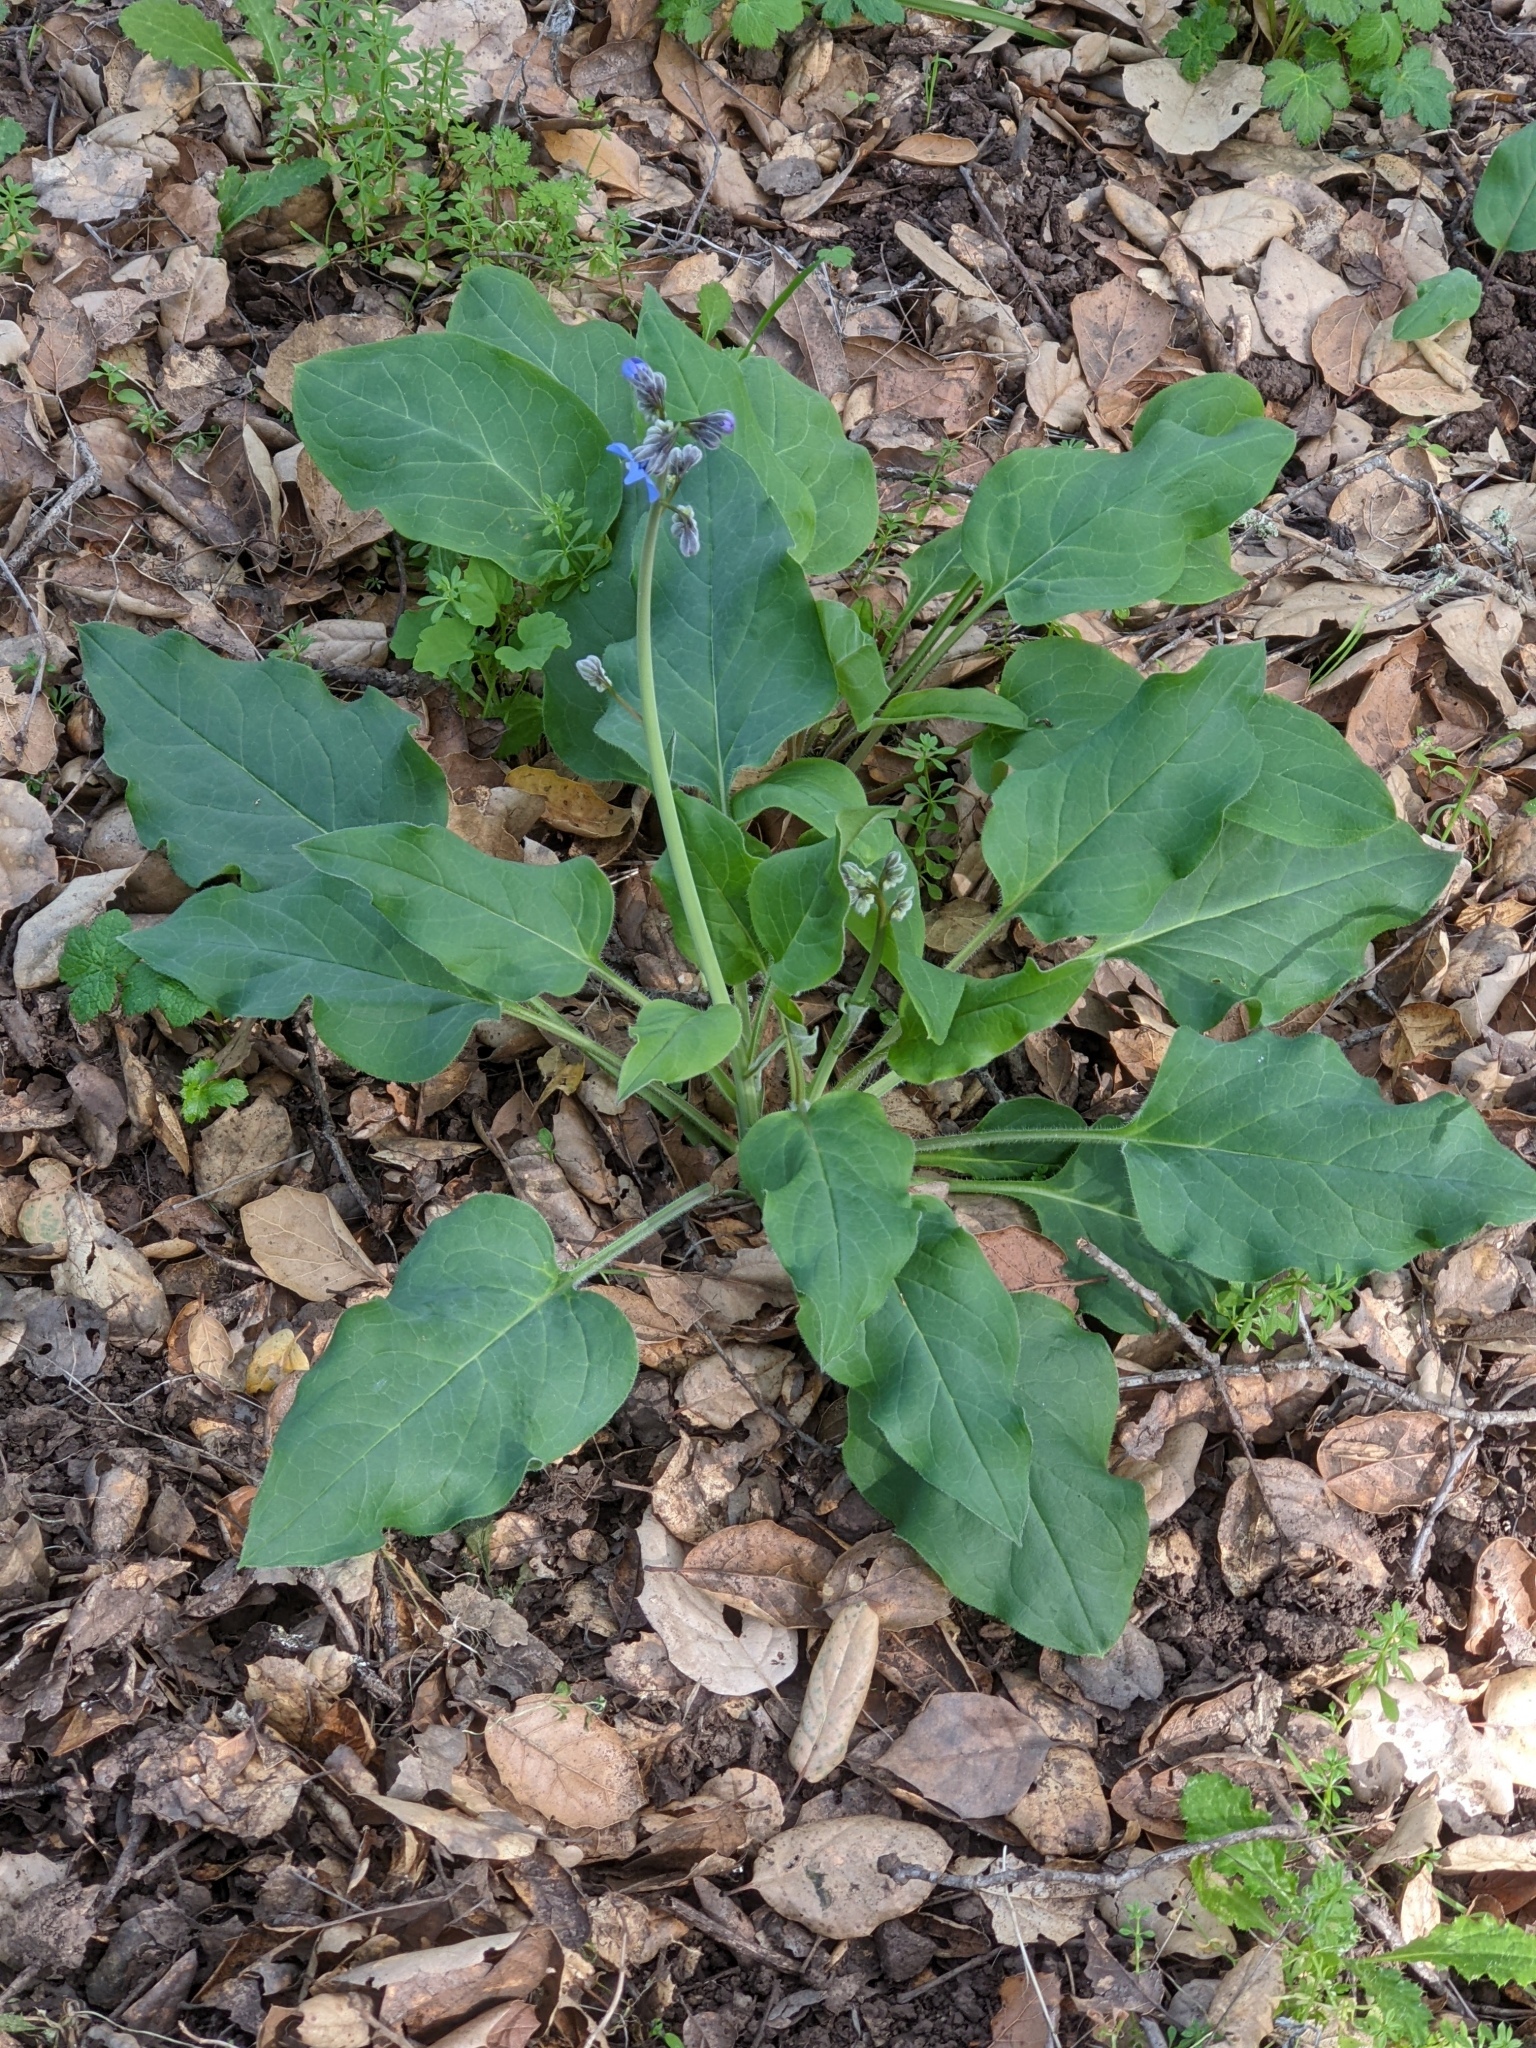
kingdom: Plantae
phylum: Tracheophyta
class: Magnoliopsida
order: Boraginales
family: Boraginaceae
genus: Adelinia
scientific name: Adelinia grande
